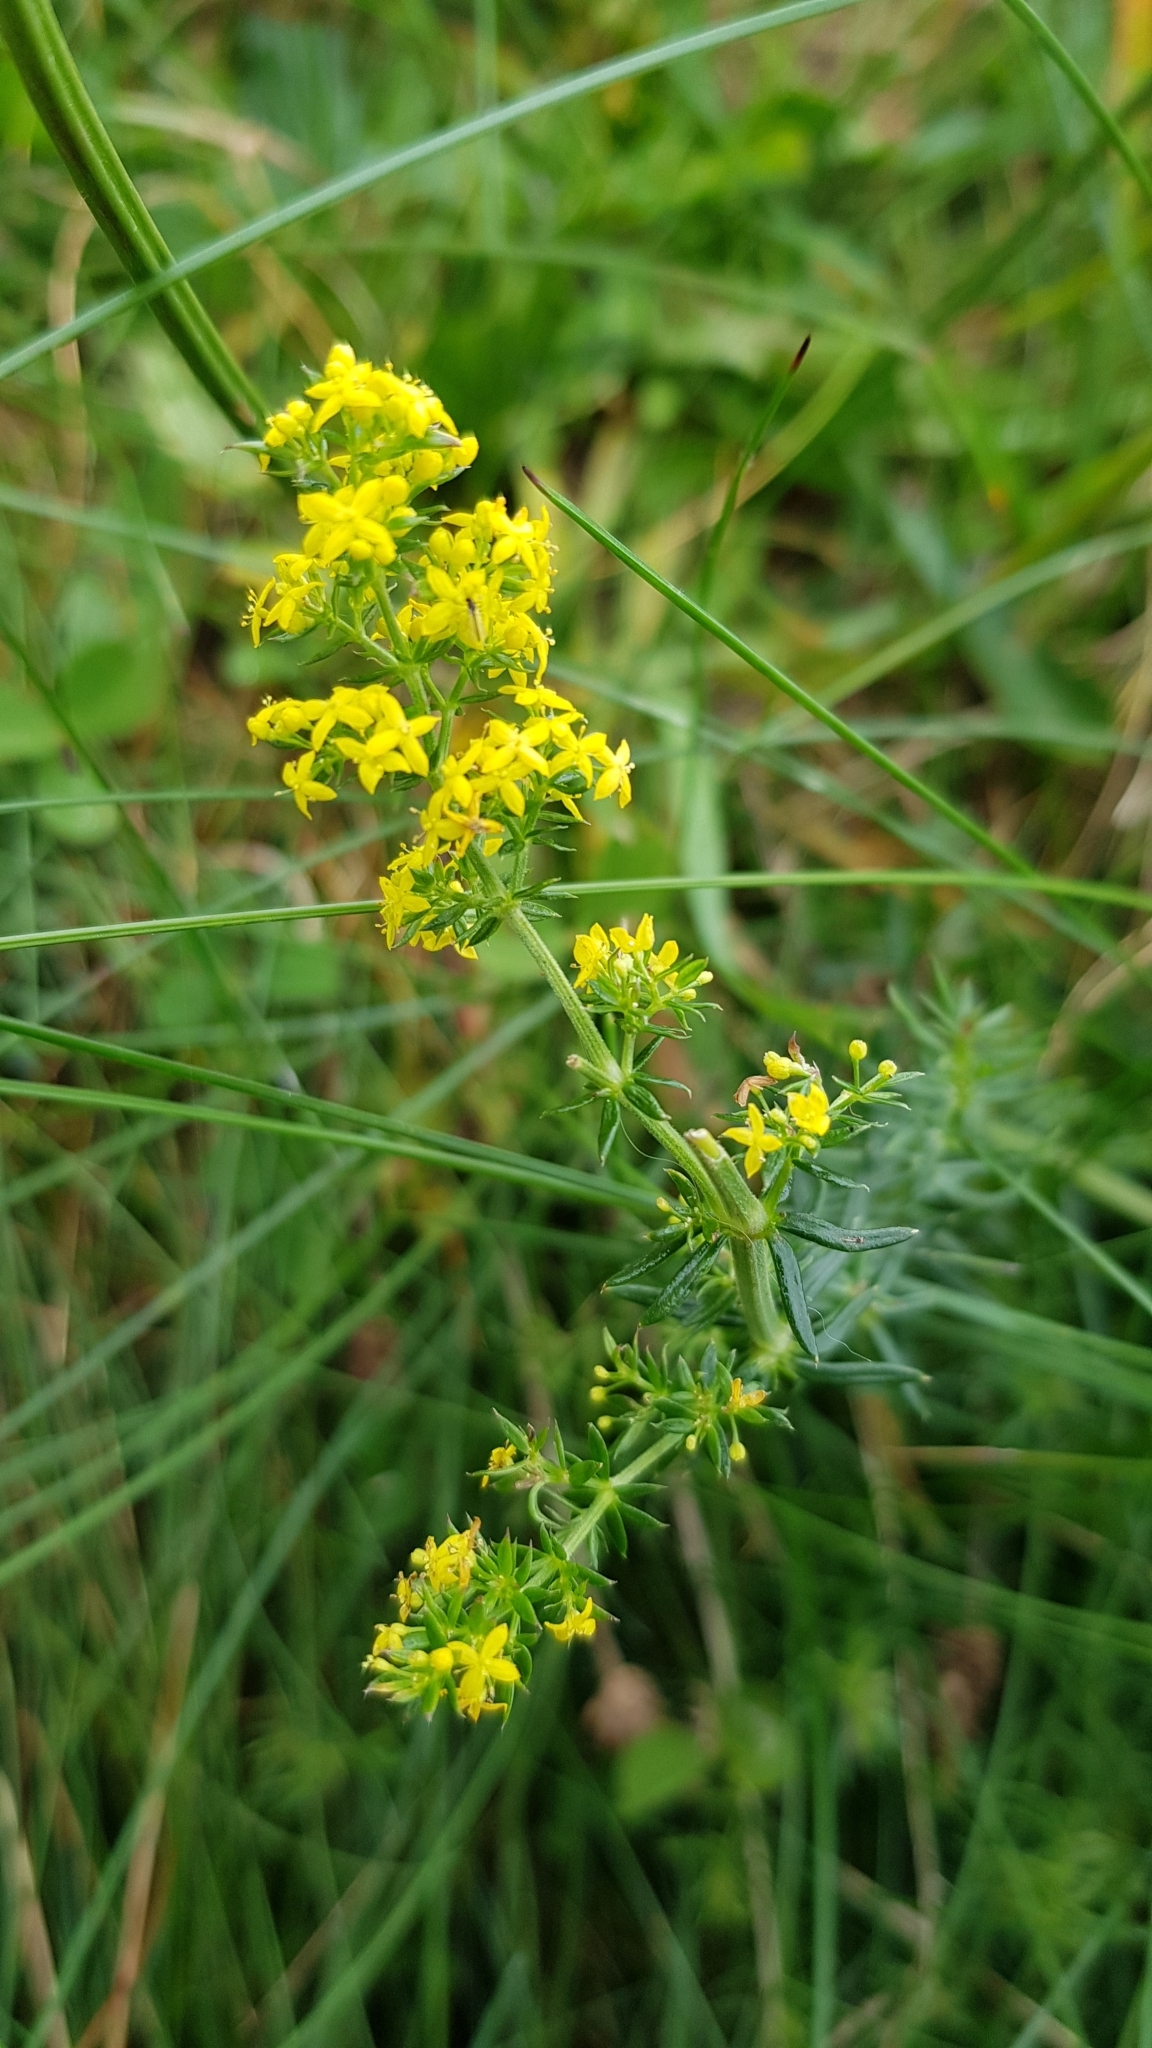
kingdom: Plantae
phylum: Tracheophyta
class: Magnoliopsida
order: Gentianales
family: Rubiaceae
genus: Galium
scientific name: Galium verum
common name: Lady's bedstraw
